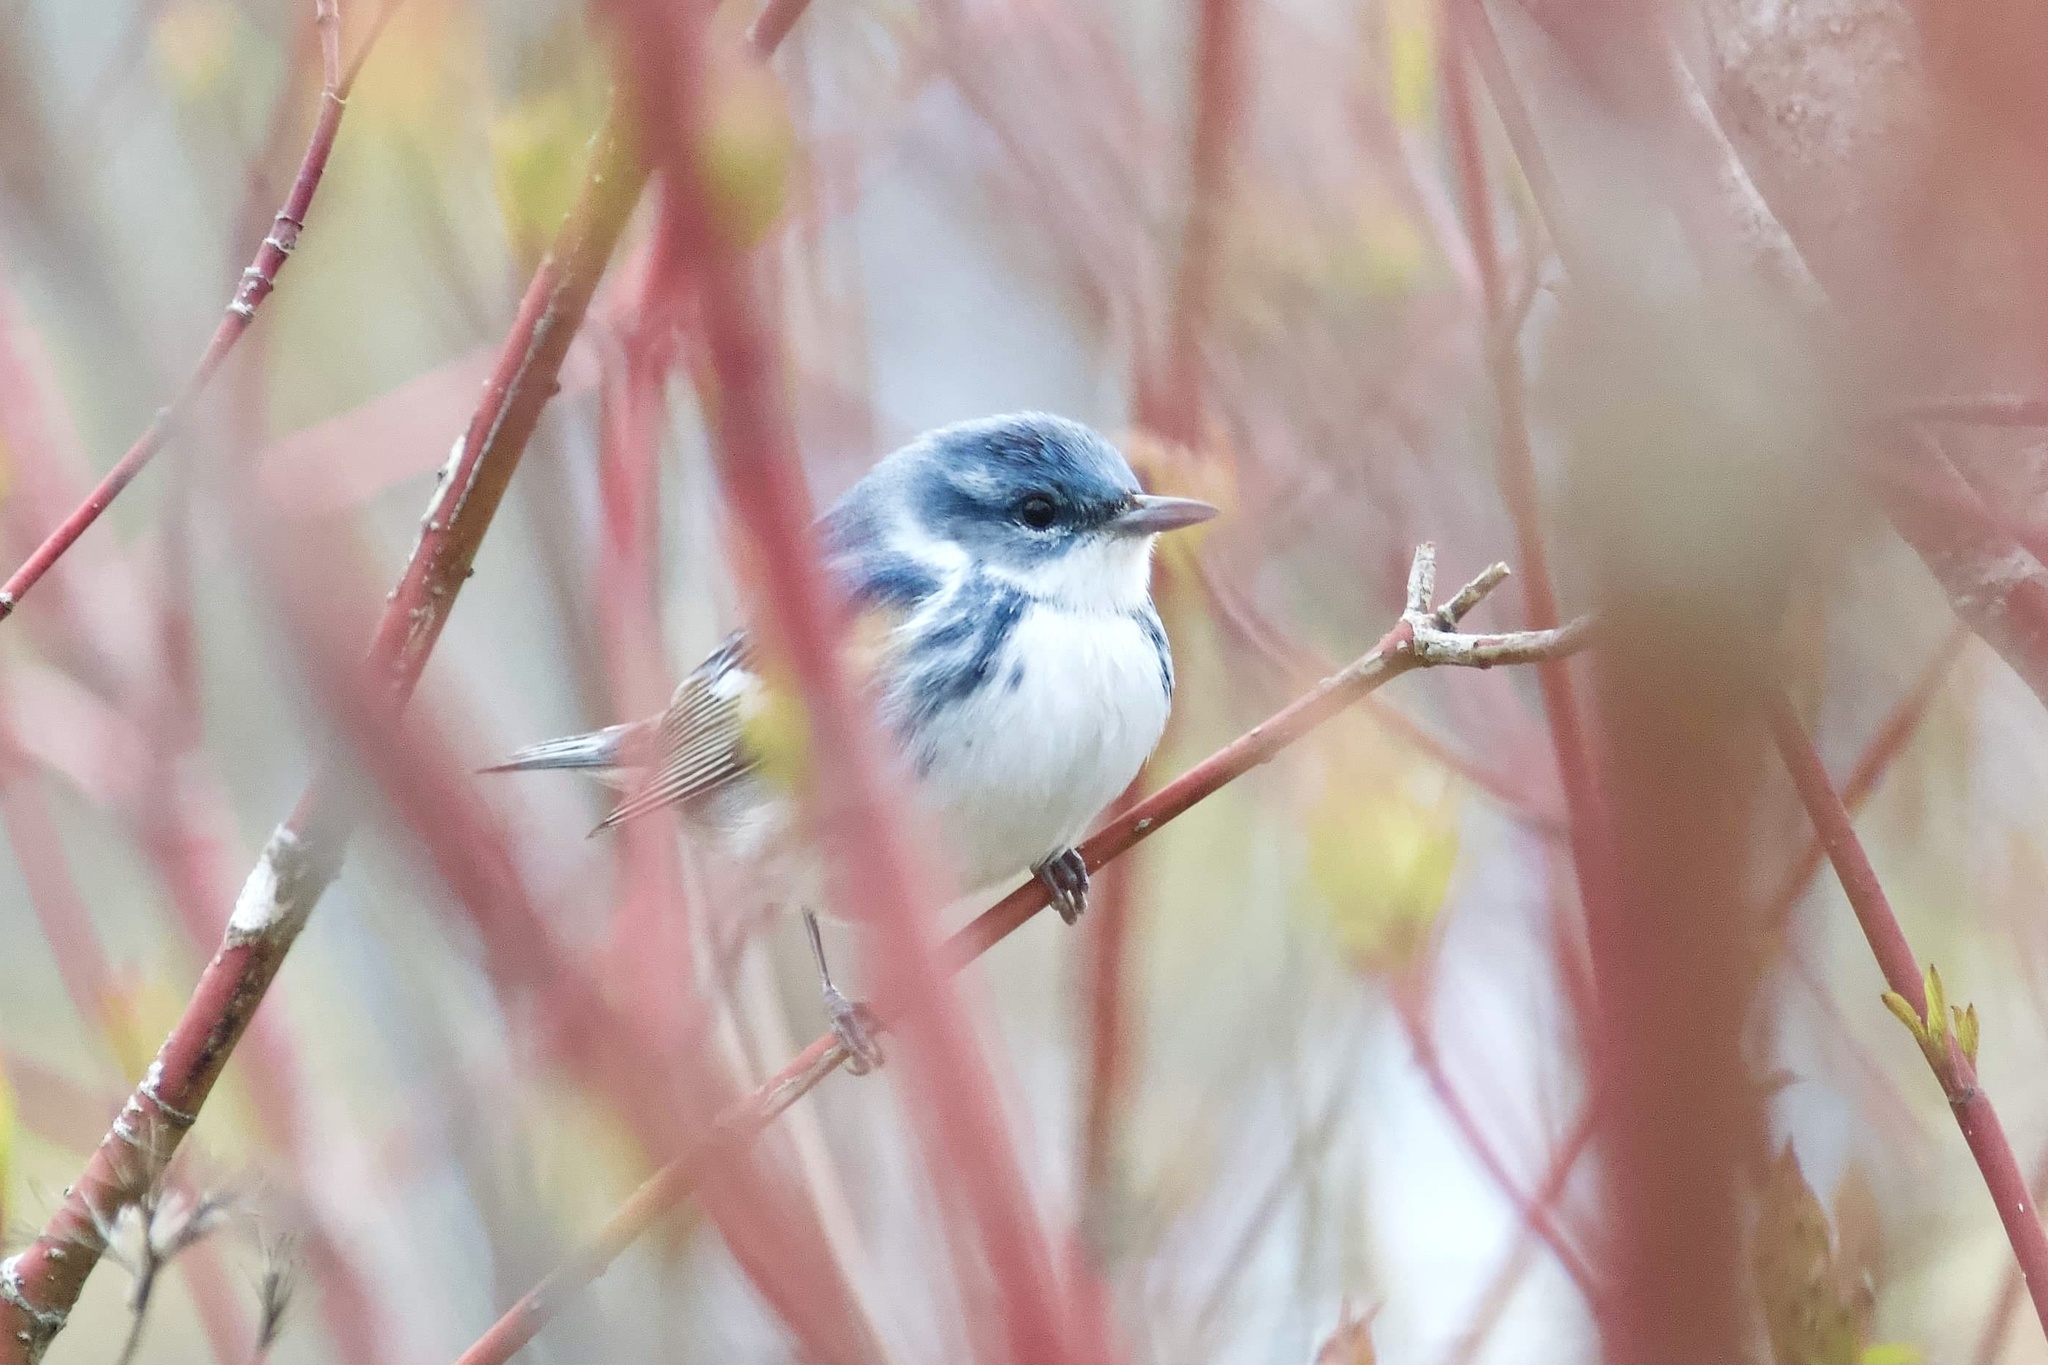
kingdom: Animalia
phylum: Chordata
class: Aves
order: Passeriformes
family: Parulidae
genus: Setophaga
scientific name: Setophaga cerulea
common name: Cerulean warbler
